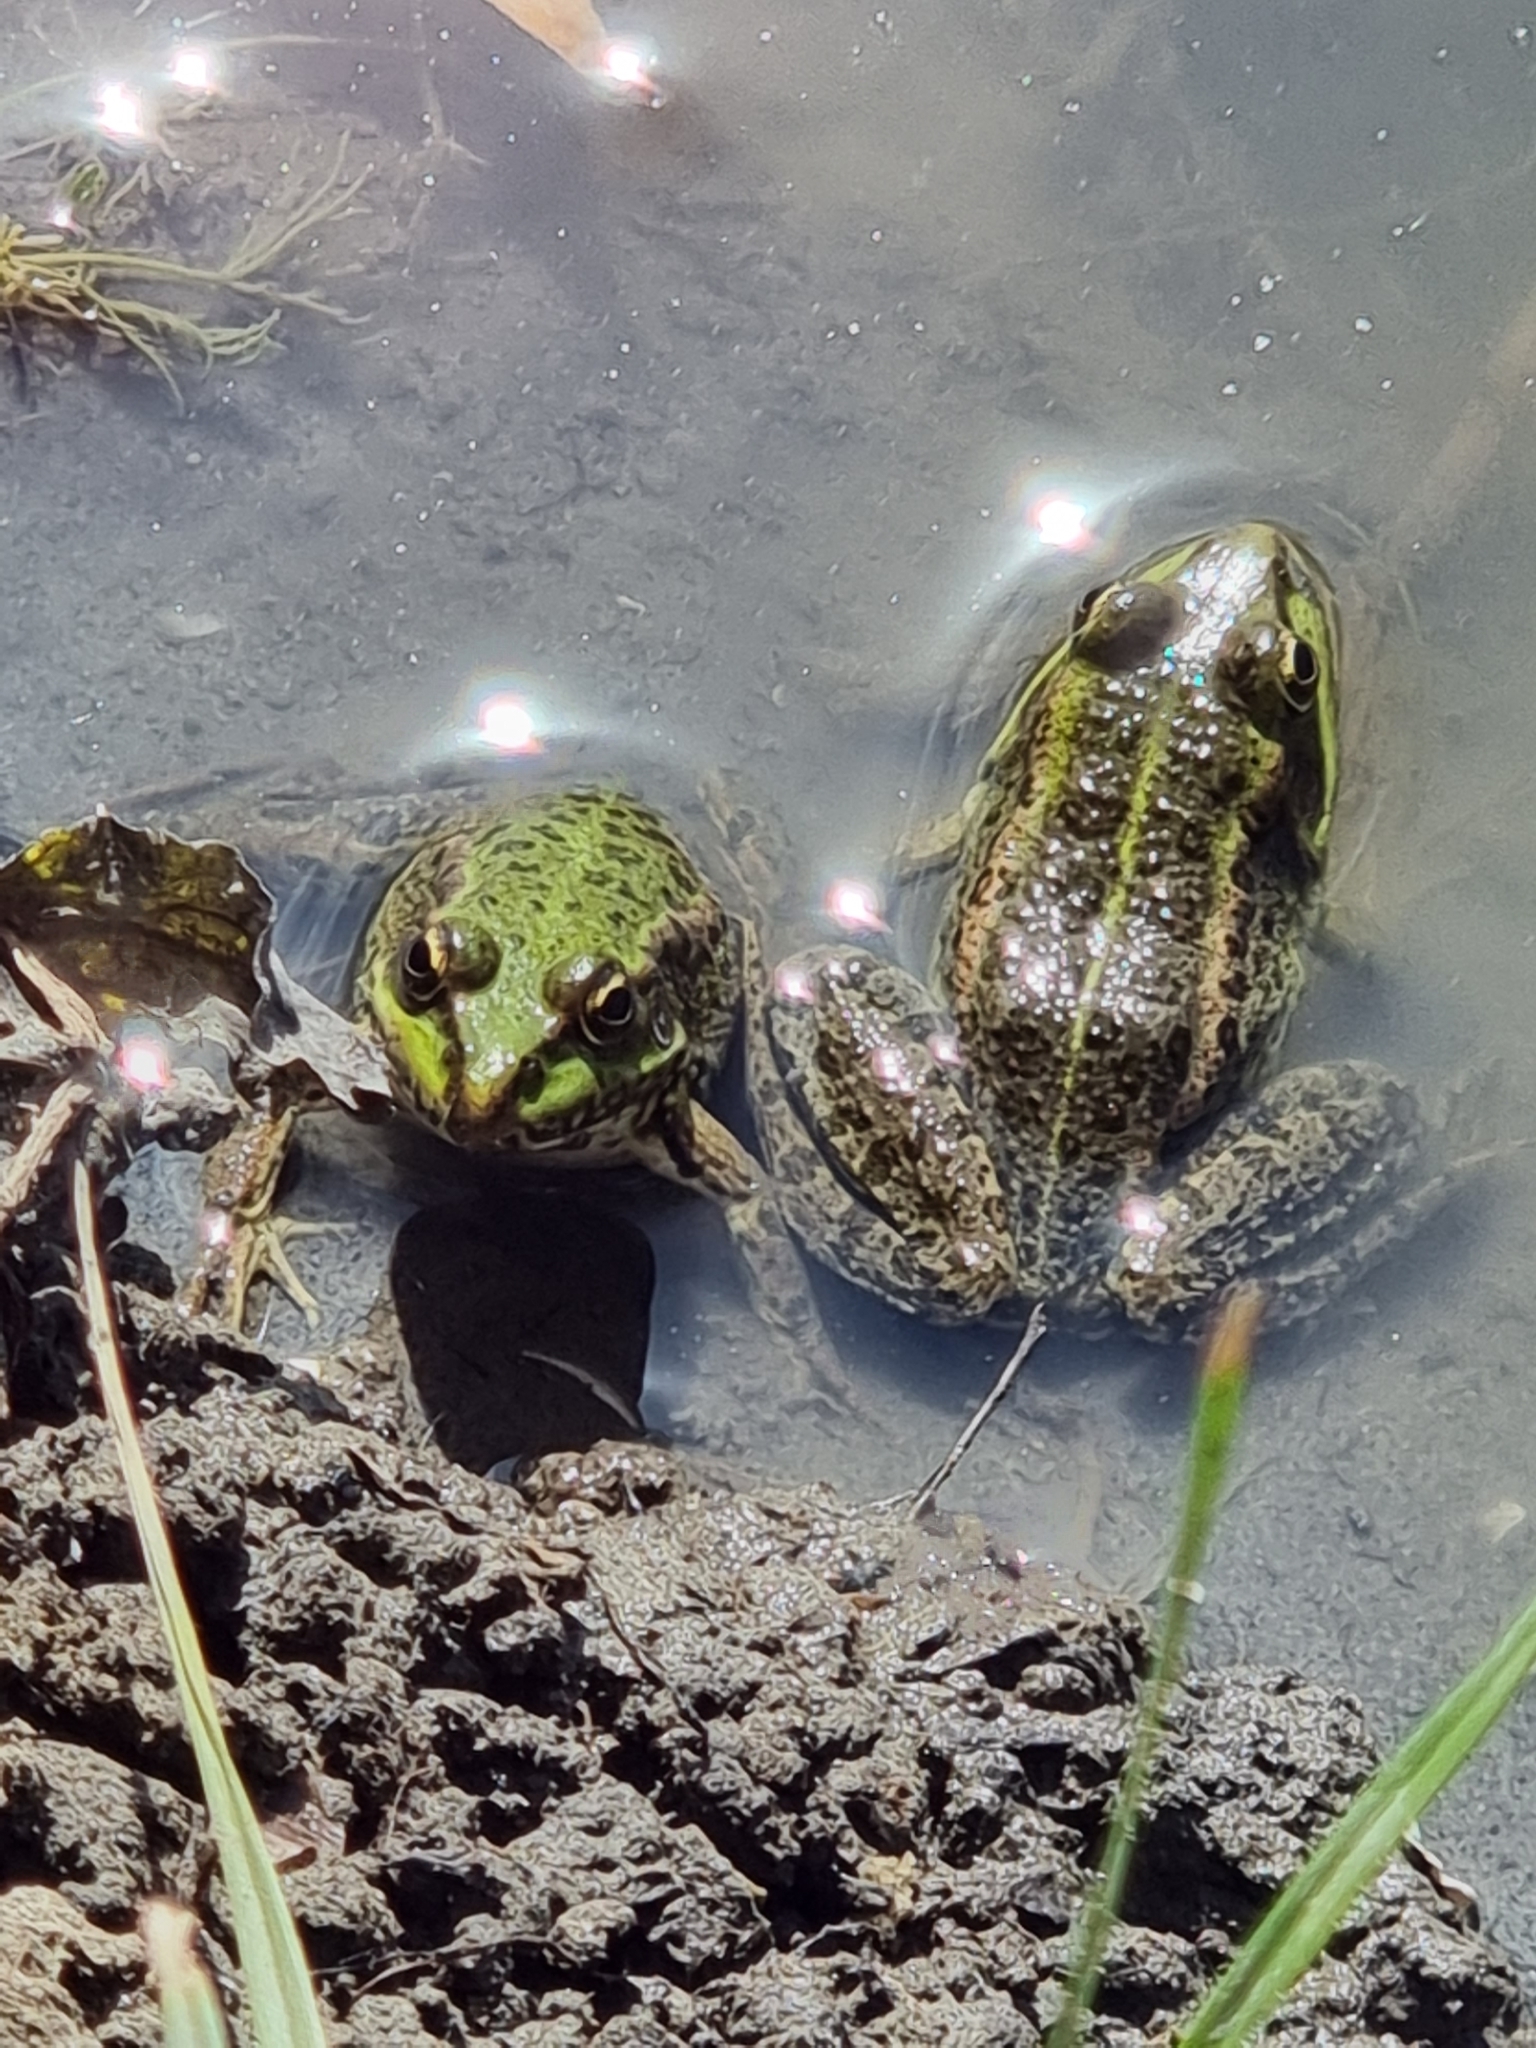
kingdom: Animalia
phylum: Chordata
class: Amphibia
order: Anura
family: Ranidae
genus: Pelophylax
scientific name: Pelophylax ridibundus
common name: Marsh frog
